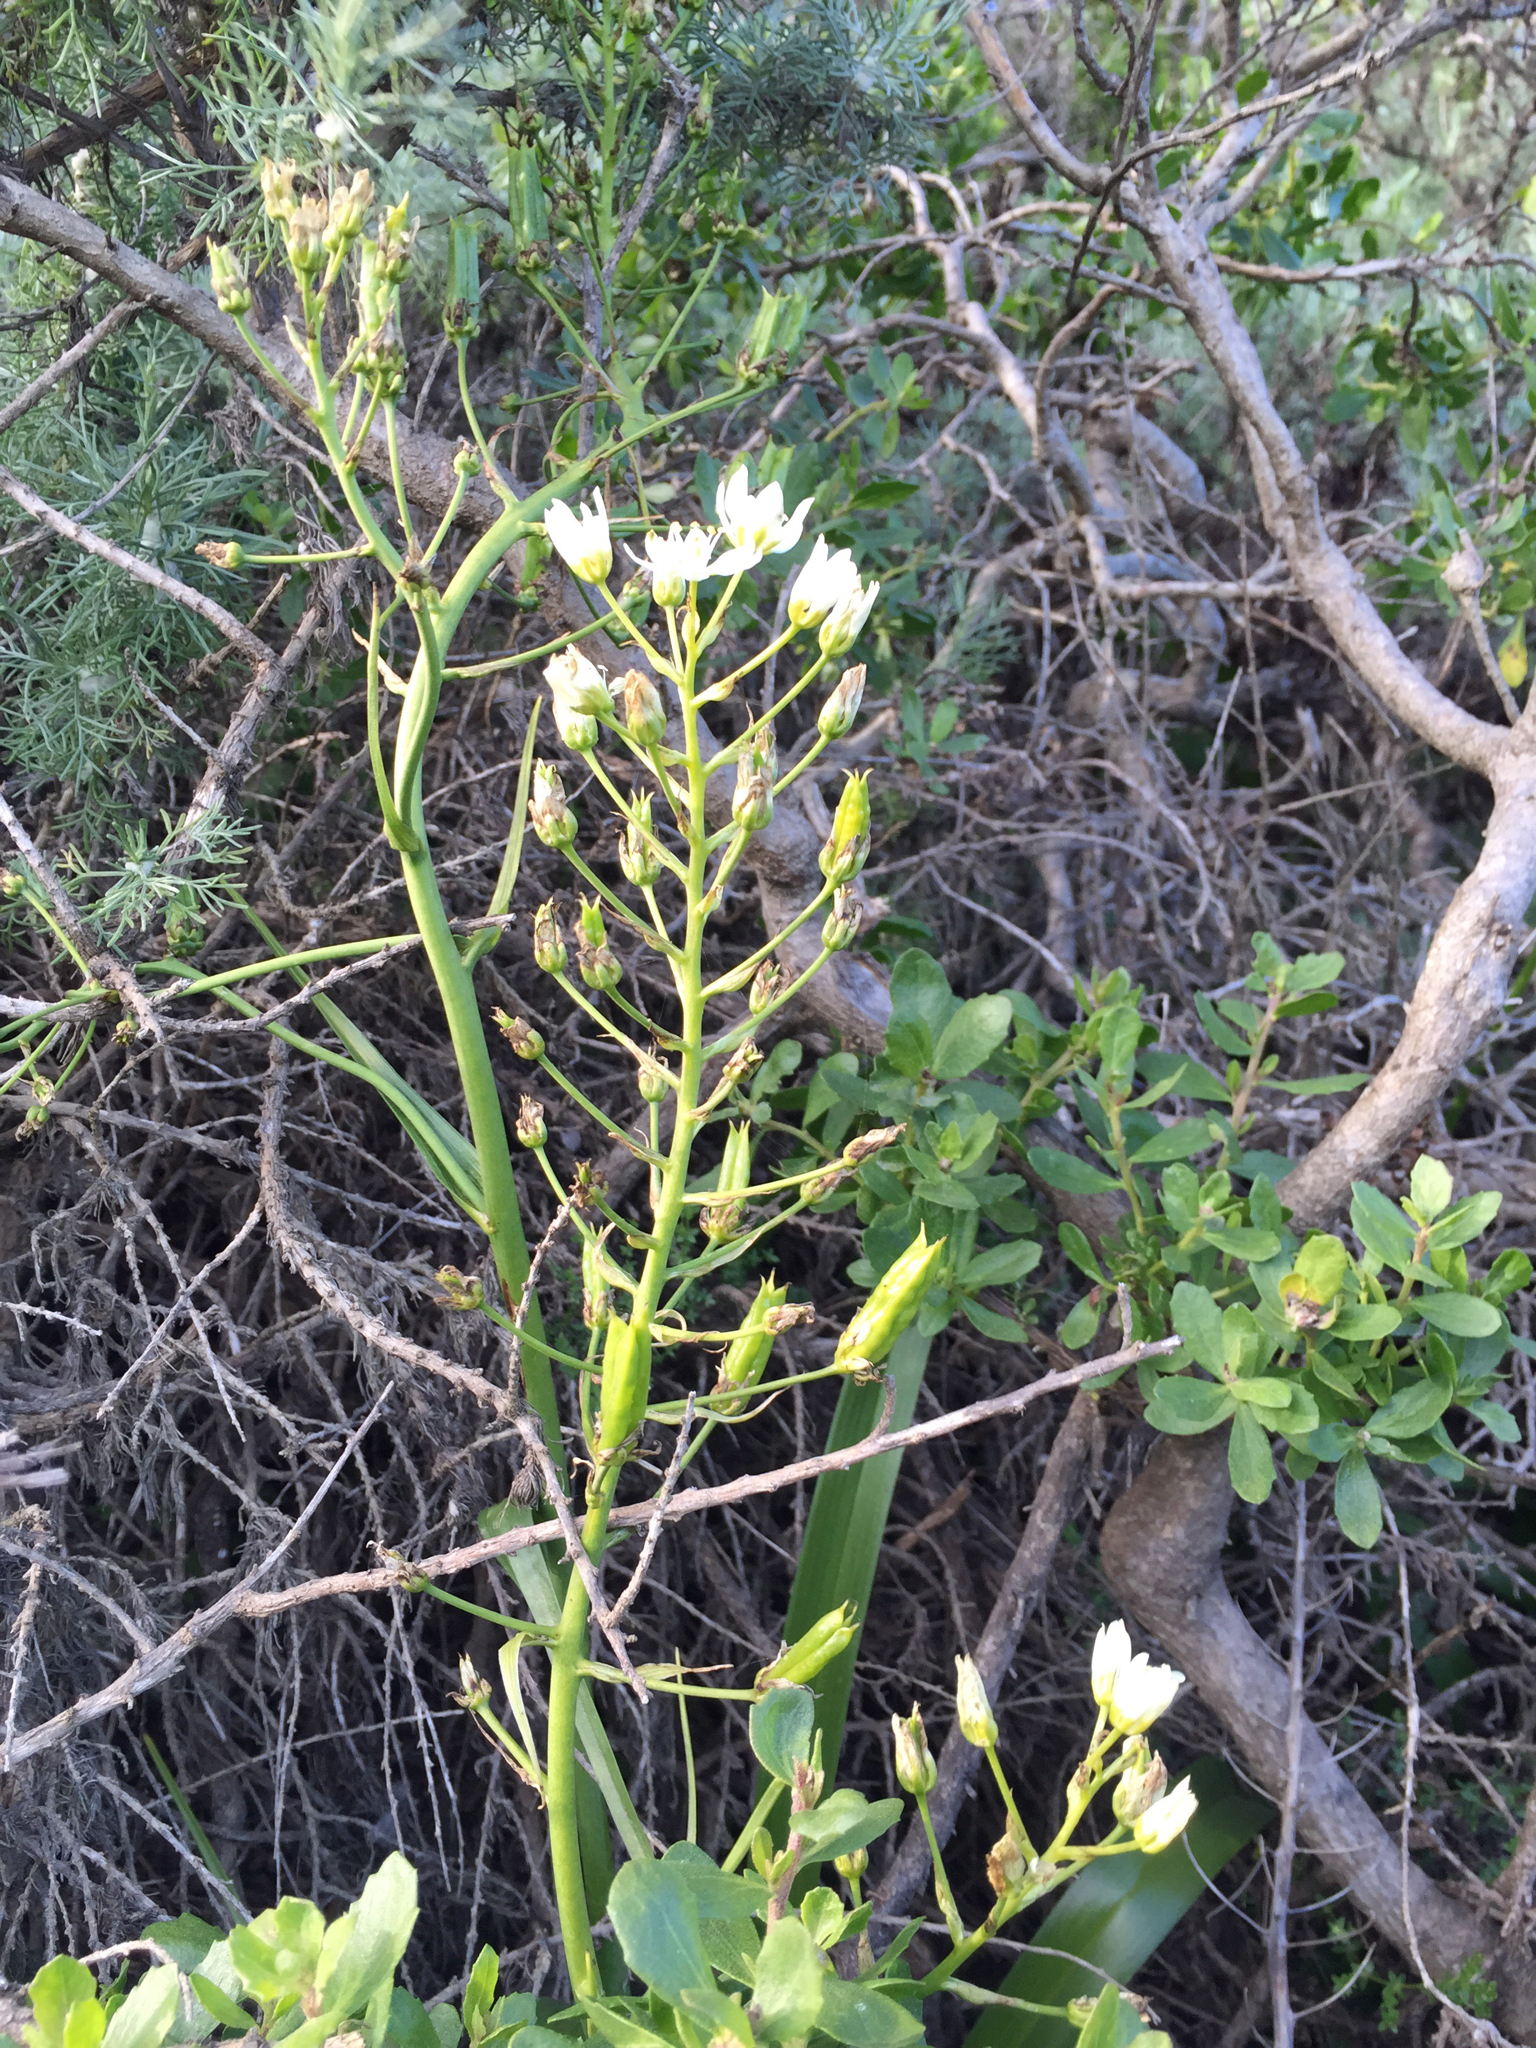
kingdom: Plantae
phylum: Tracheophyta
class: Liliopsida
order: Liliales
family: Melanthiaceae
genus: Toxicoscordion
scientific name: Toxicoscordion fremontii
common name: Fremont's death camas
